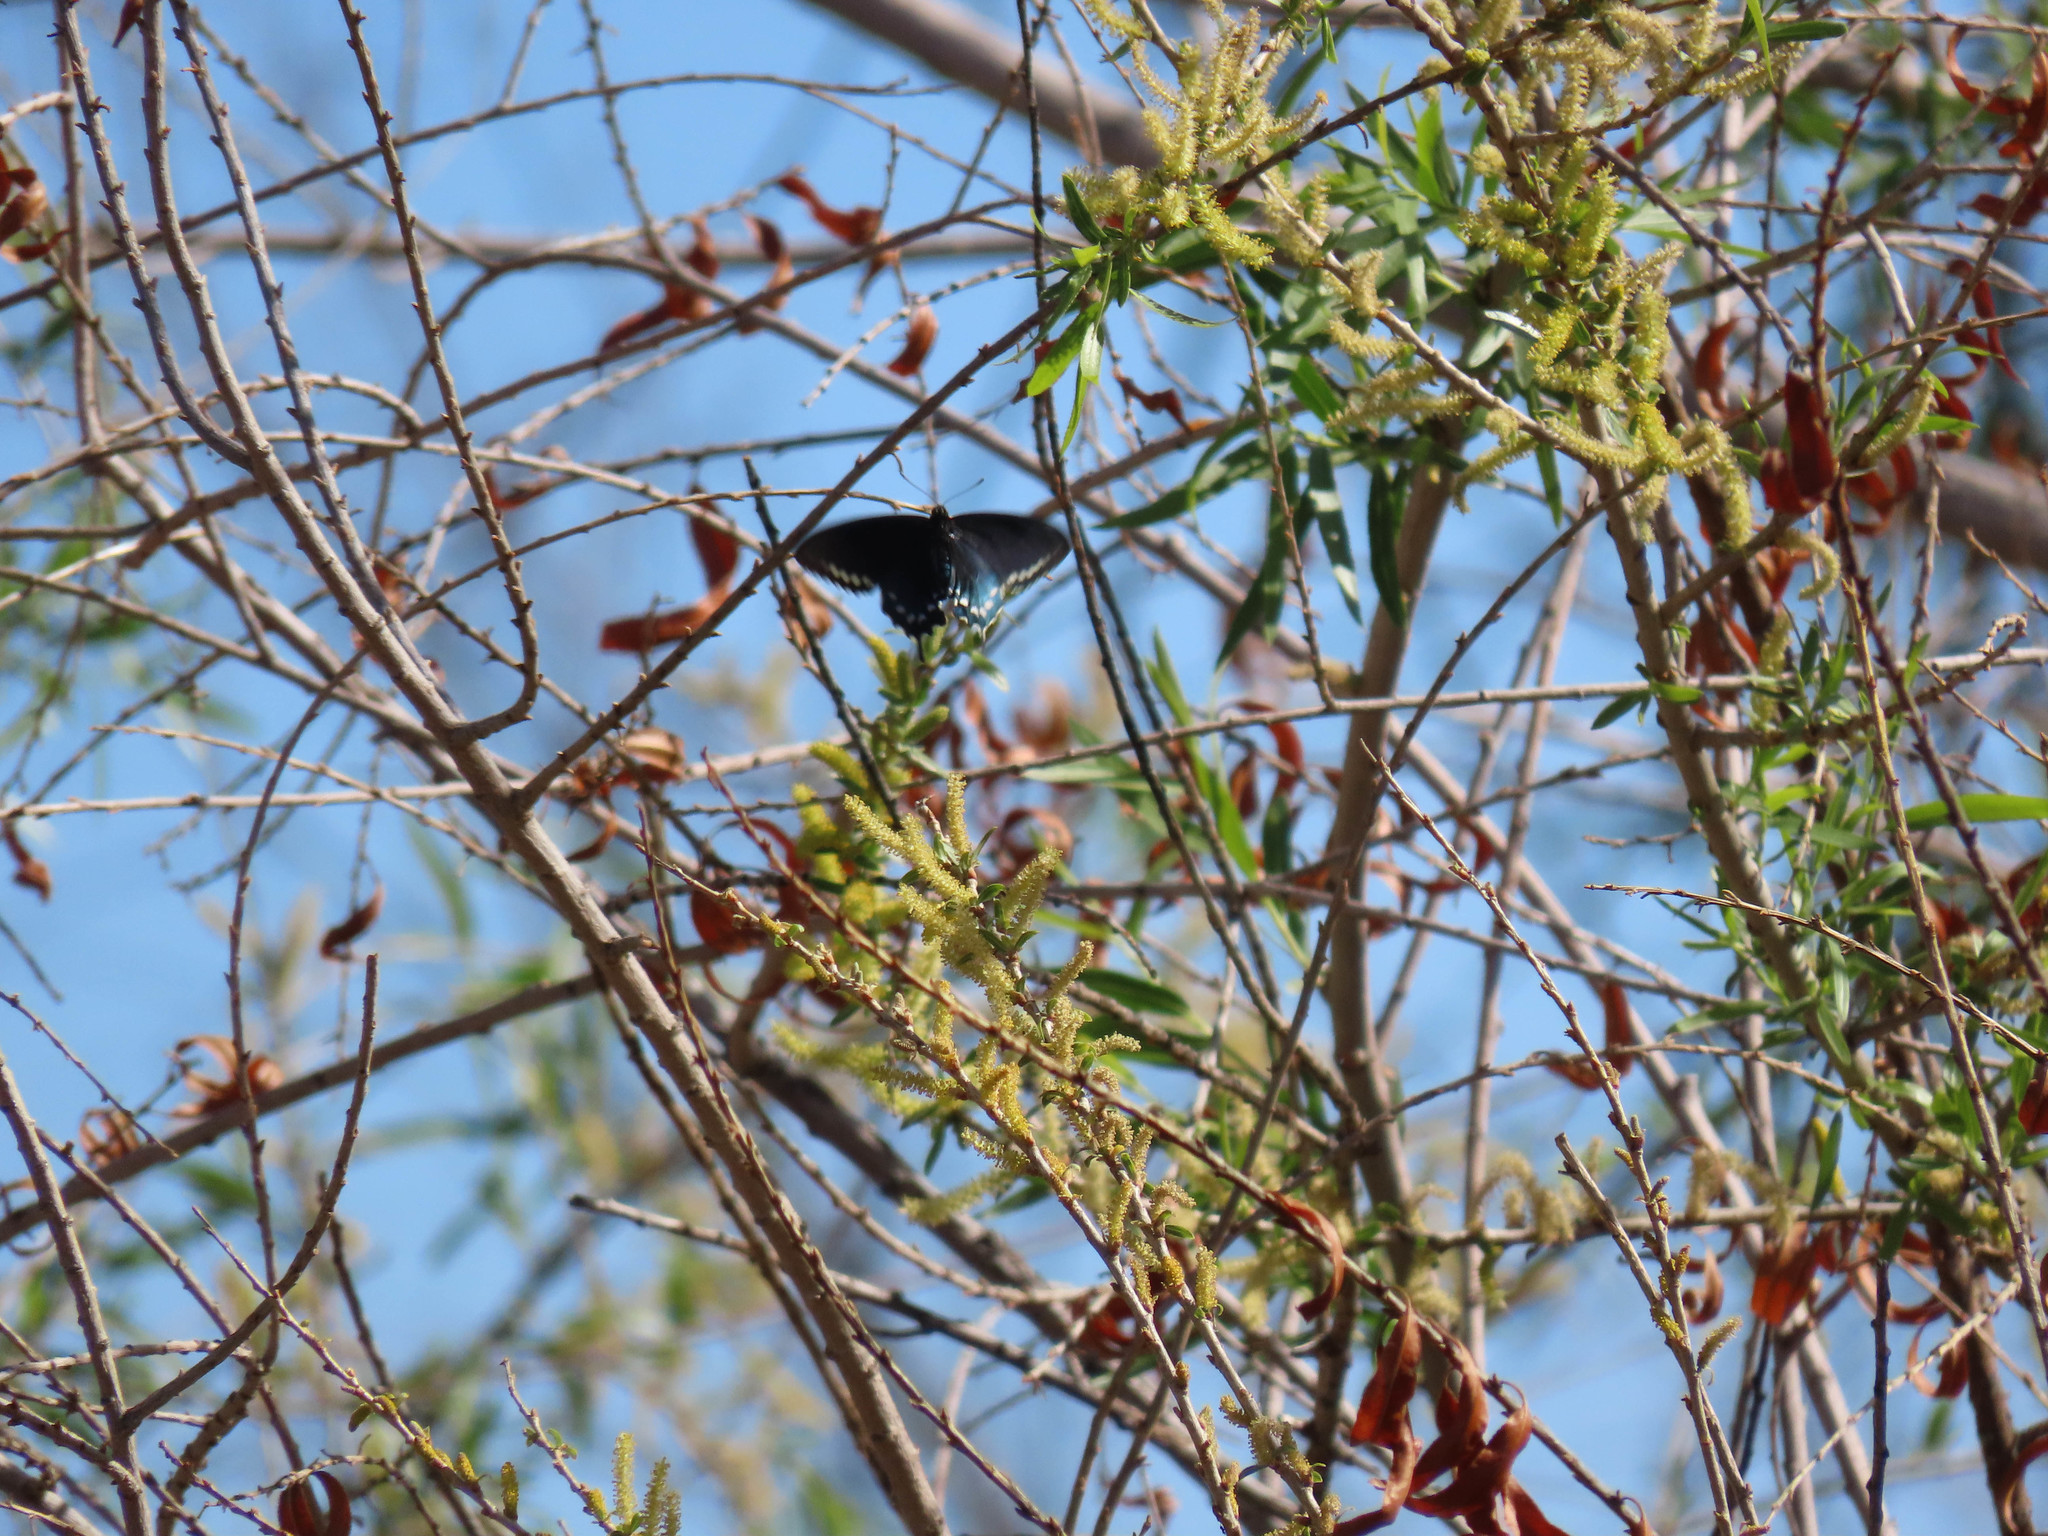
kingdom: Animalia
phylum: Arthropoda
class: Insecta
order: Lepidoptera
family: Papilionidae
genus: Battus
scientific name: Battus philenor
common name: Pipevine swallowtail
